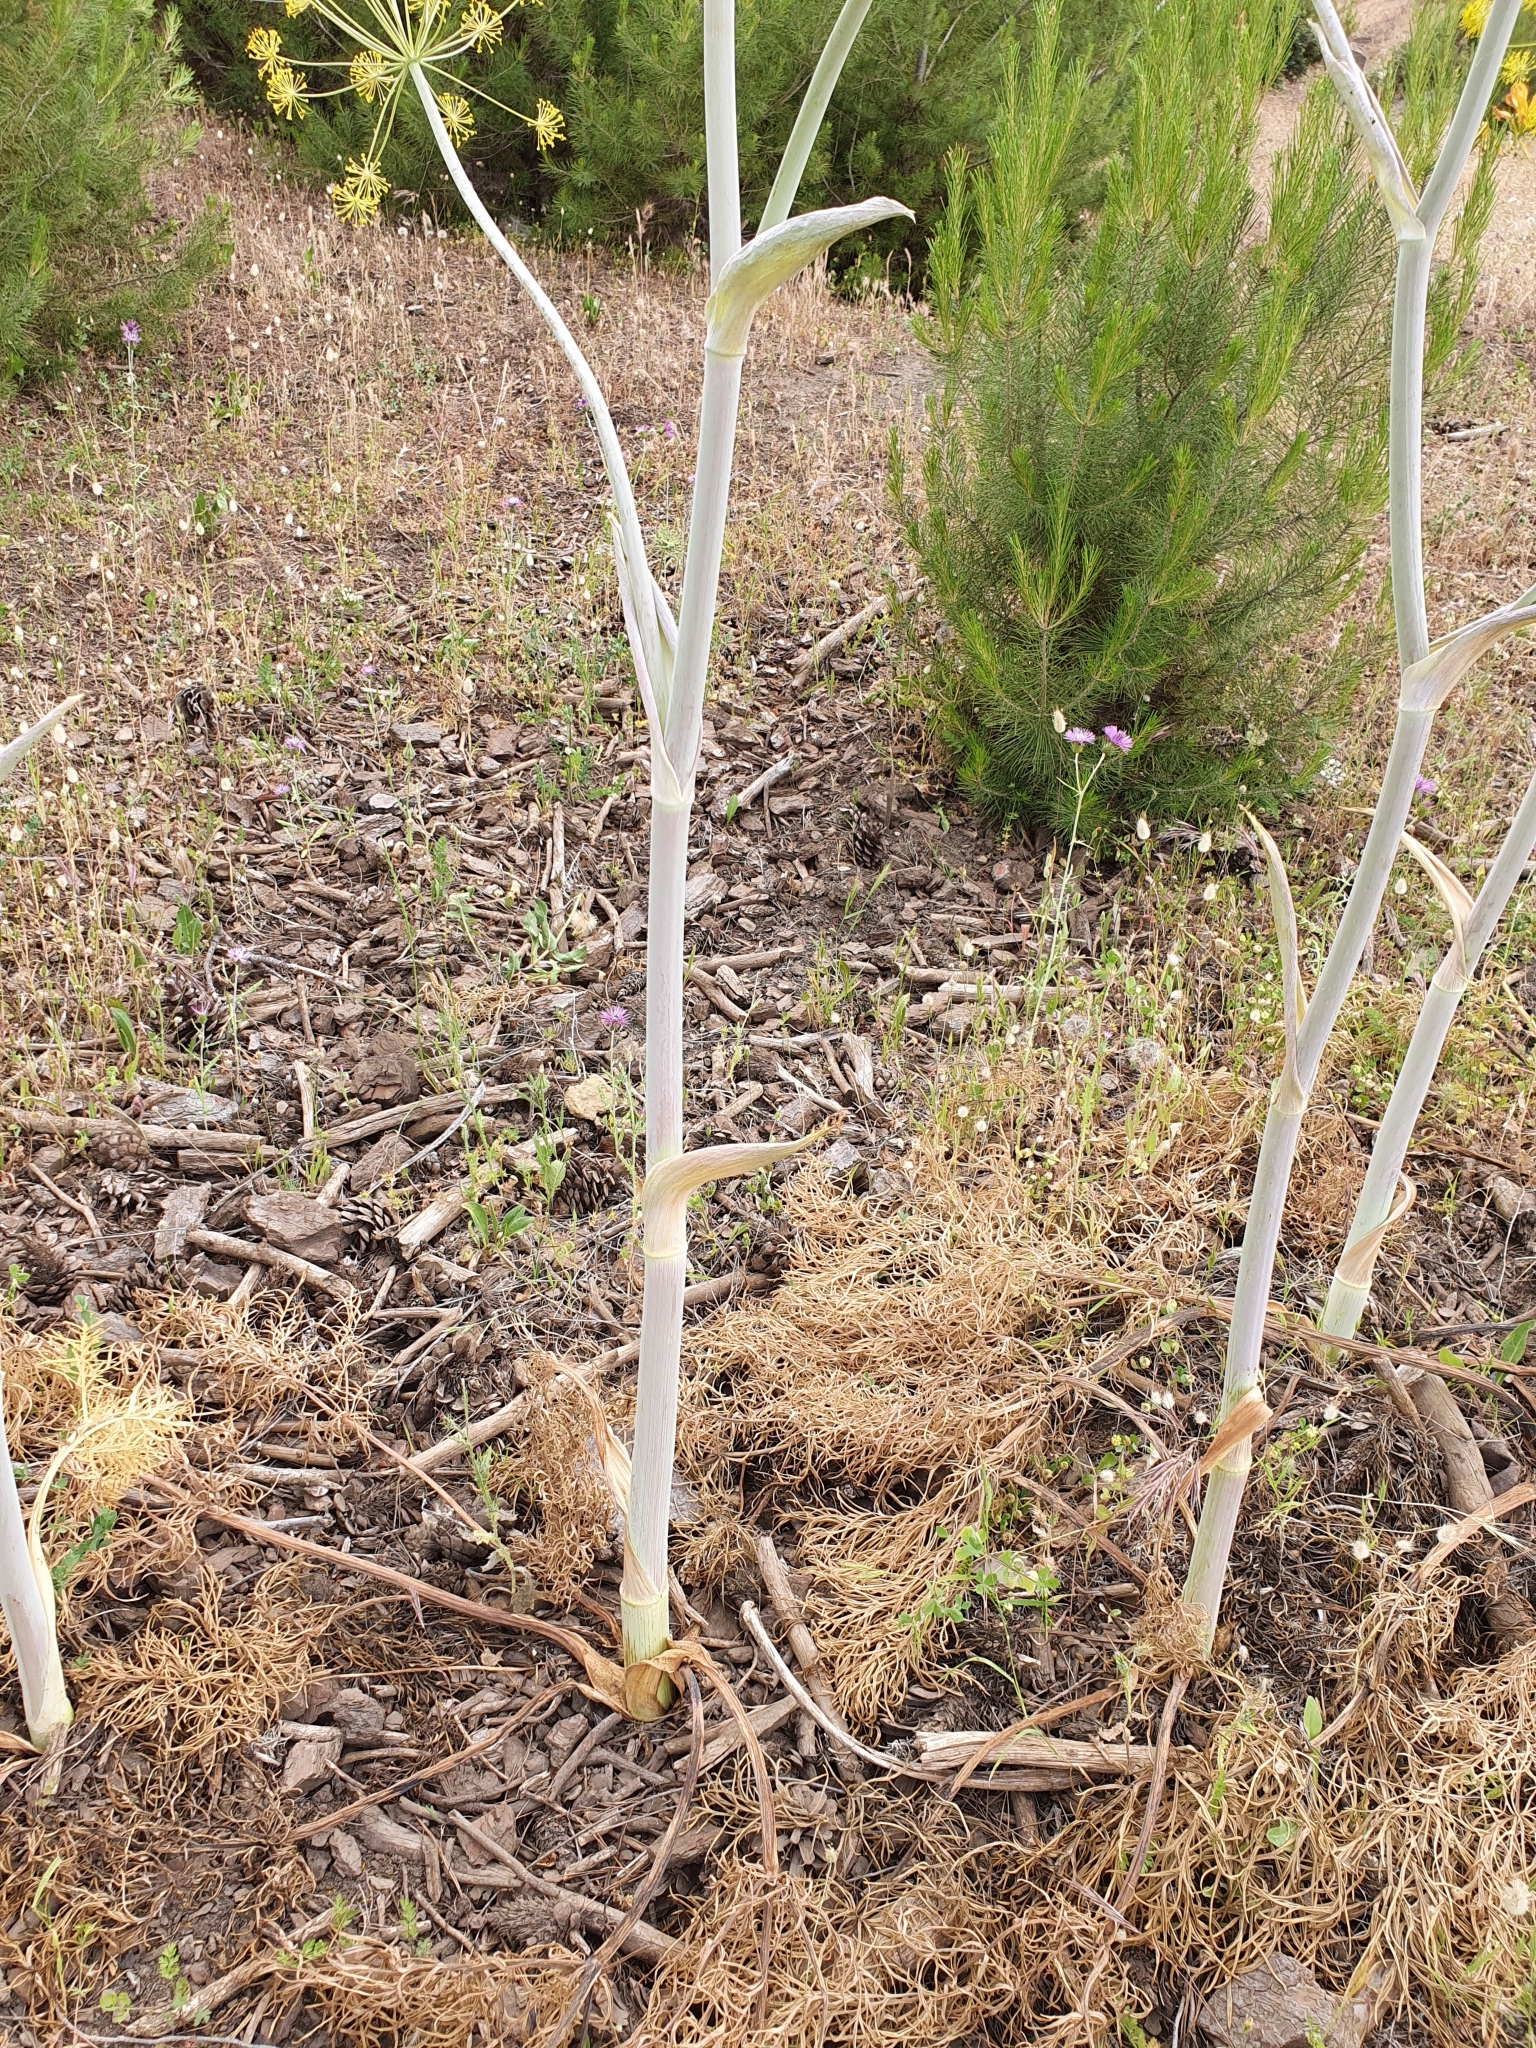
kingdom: Plantae
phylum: Tracheophyta
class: Magnoliopsida
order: Apiales
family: Apiaceae
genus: Thapsia
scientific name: Thapsia garganica
